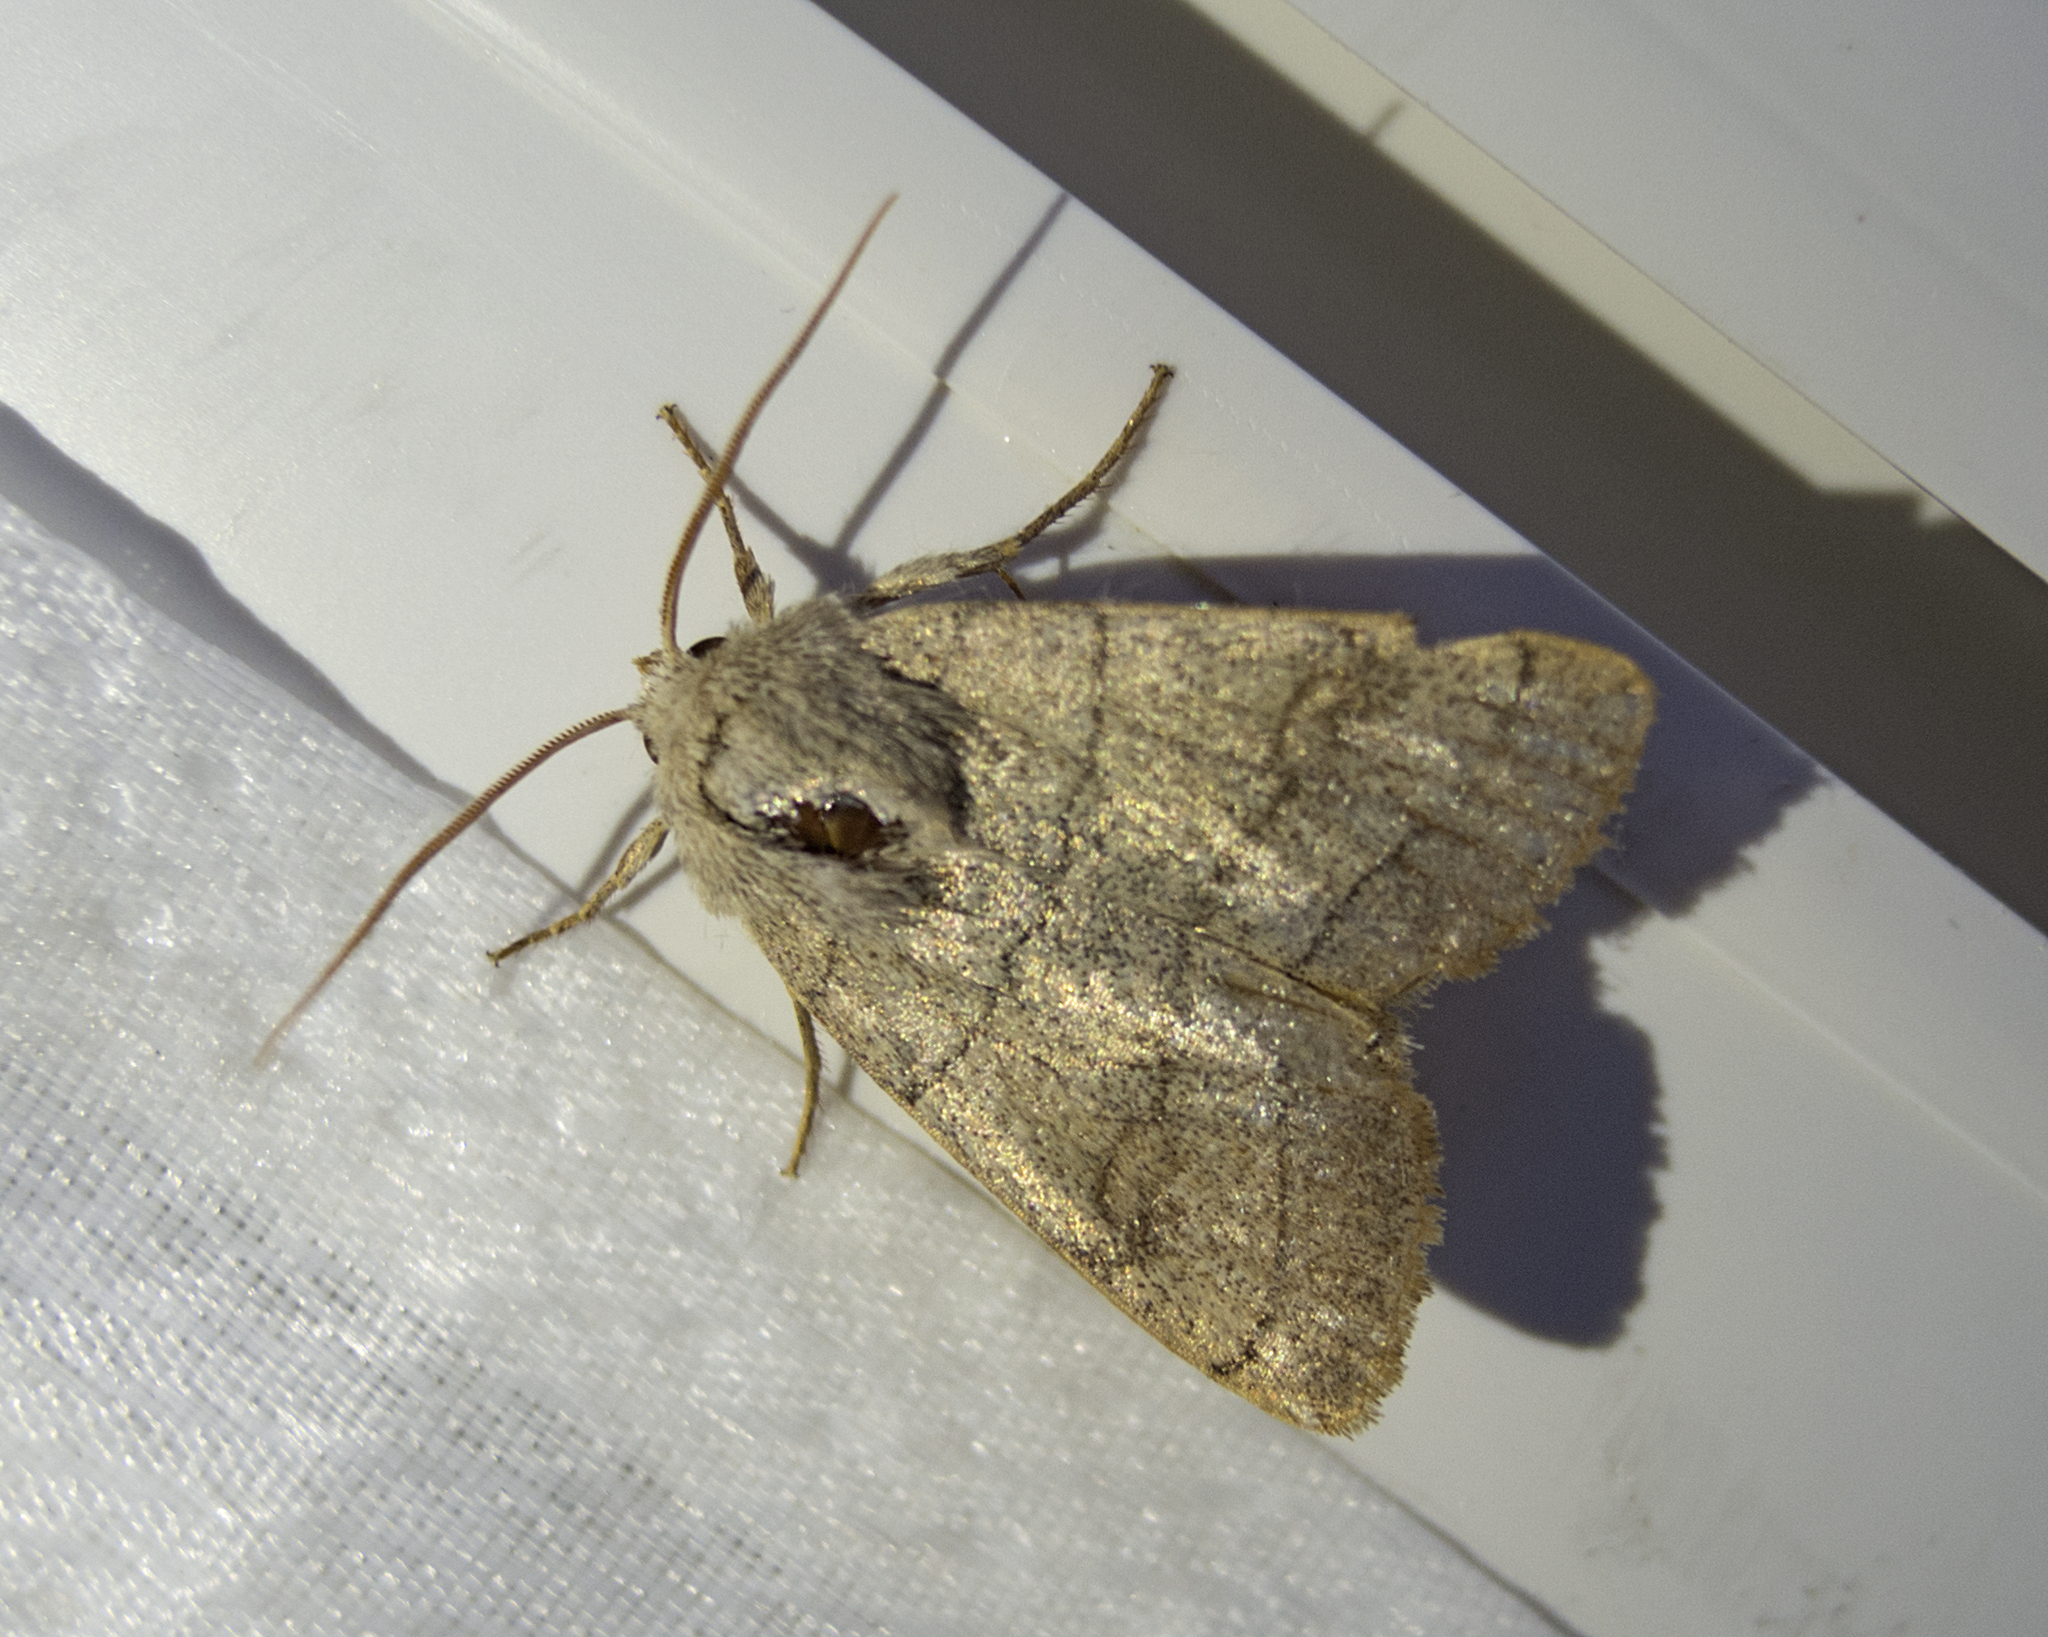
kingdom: Animalia
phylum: Arthropoda
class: Insecta
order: Lepidoptera
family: Noctuidae
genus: Charanyca
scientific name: Charanyca trigrammica
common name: Treble lines
